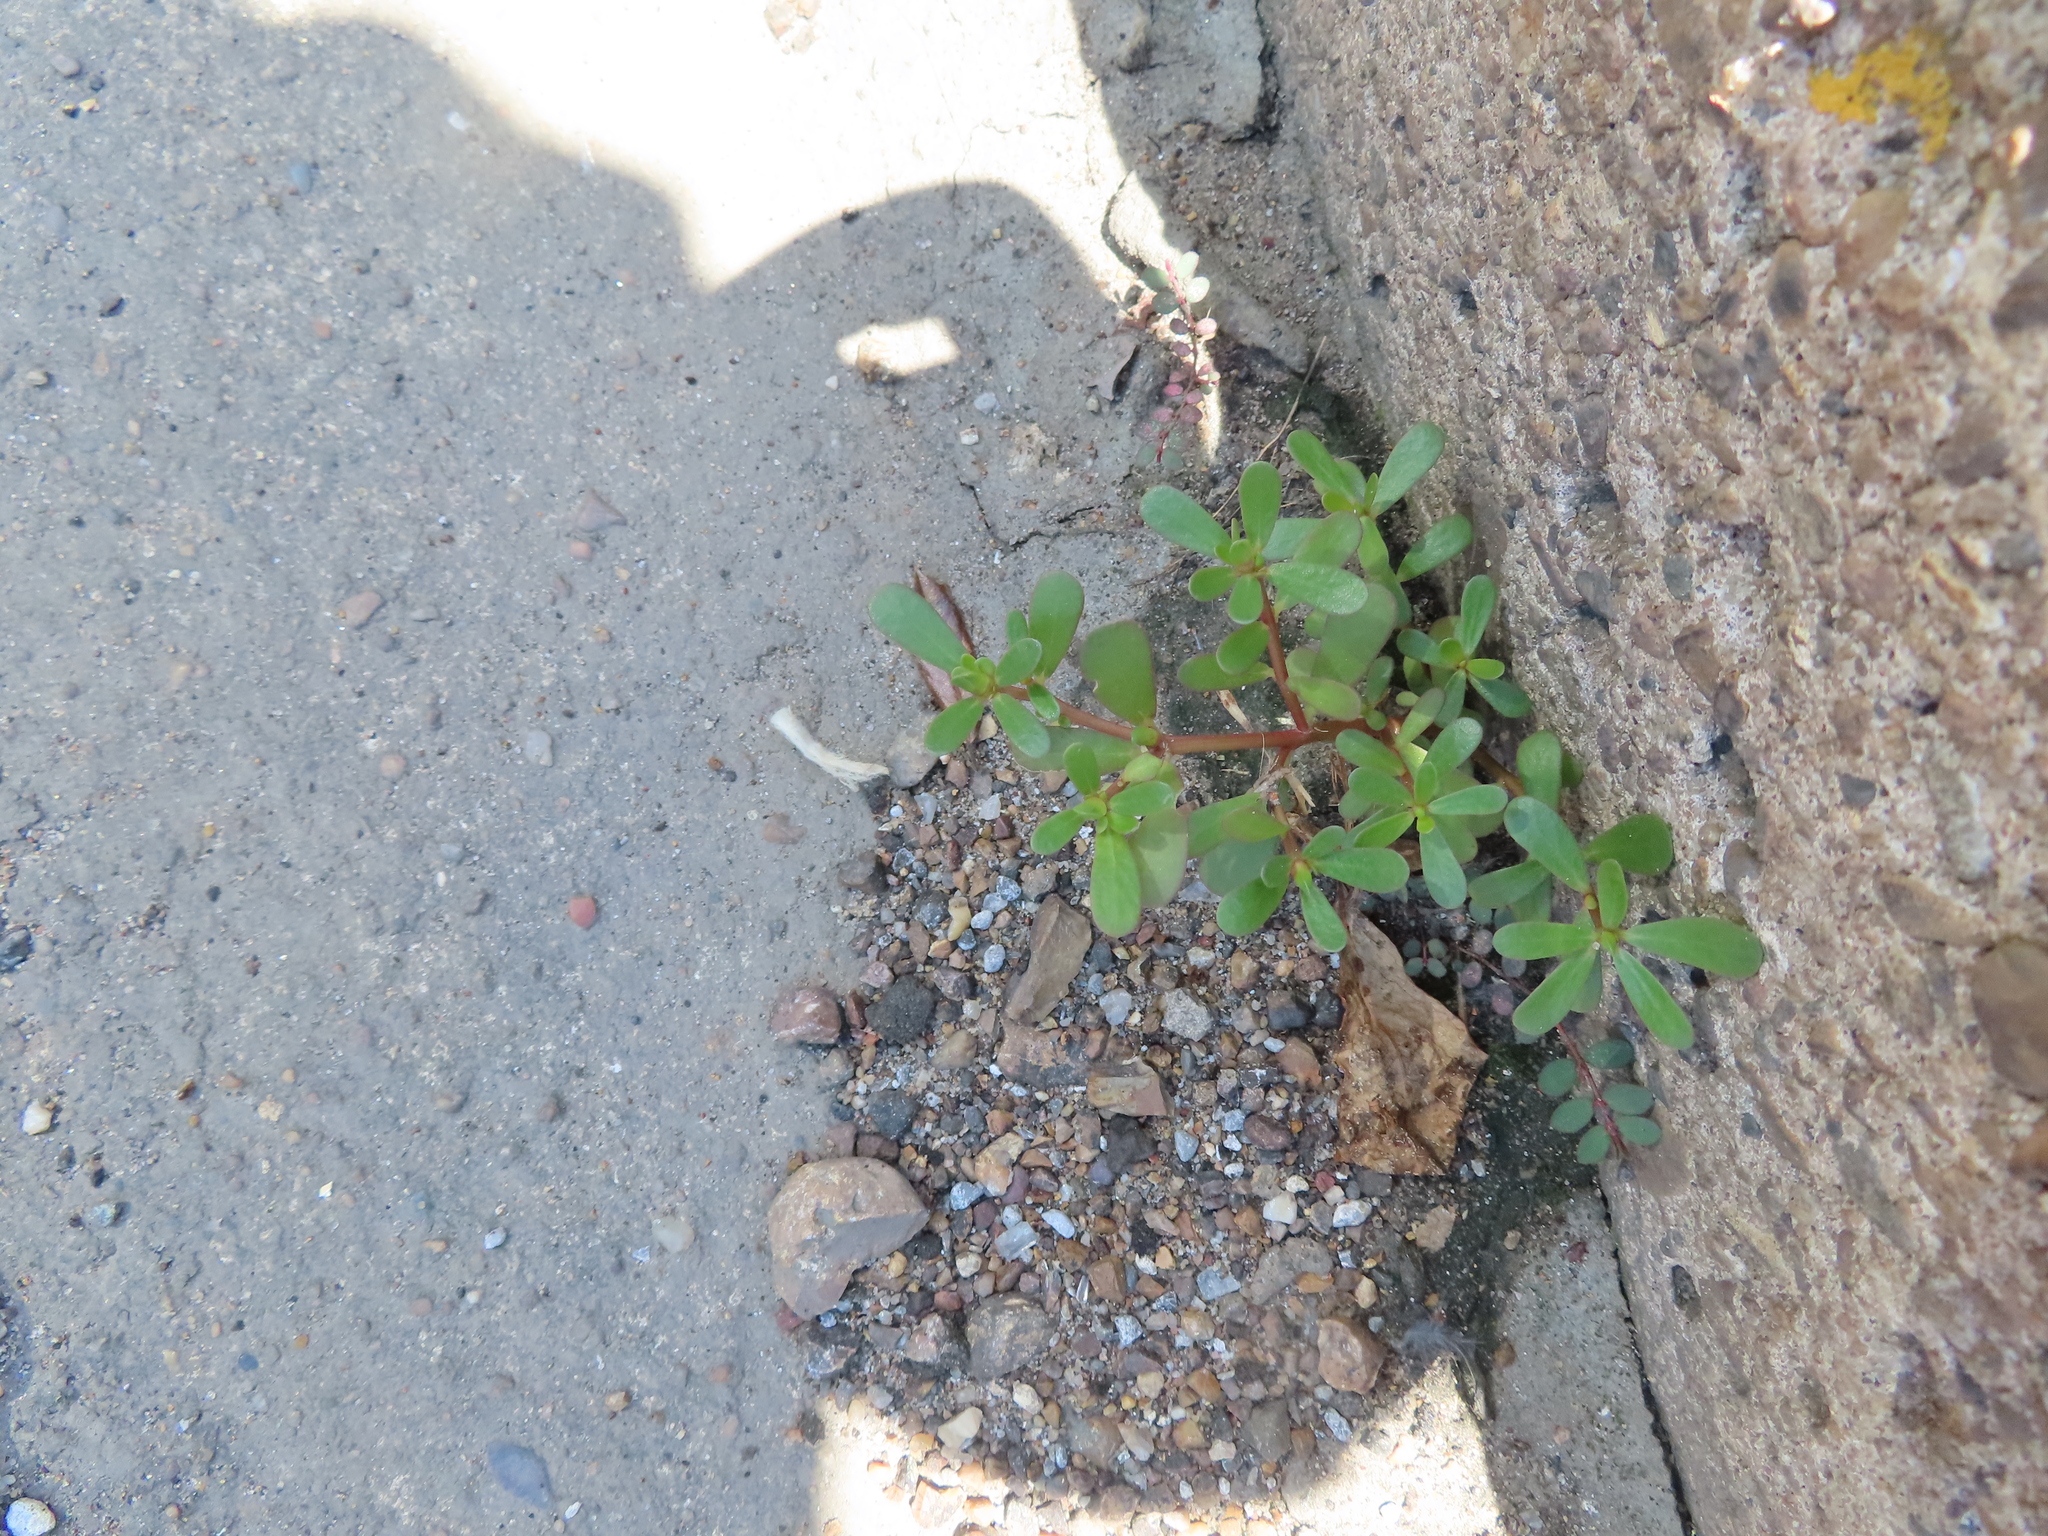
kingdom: Plantae
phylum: Tracheophyta
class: Magnoliopsida
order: Caryophyllales
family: Portulacaceae
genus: Portulaca
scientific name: Portulaca oleracea
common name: Common purslane
